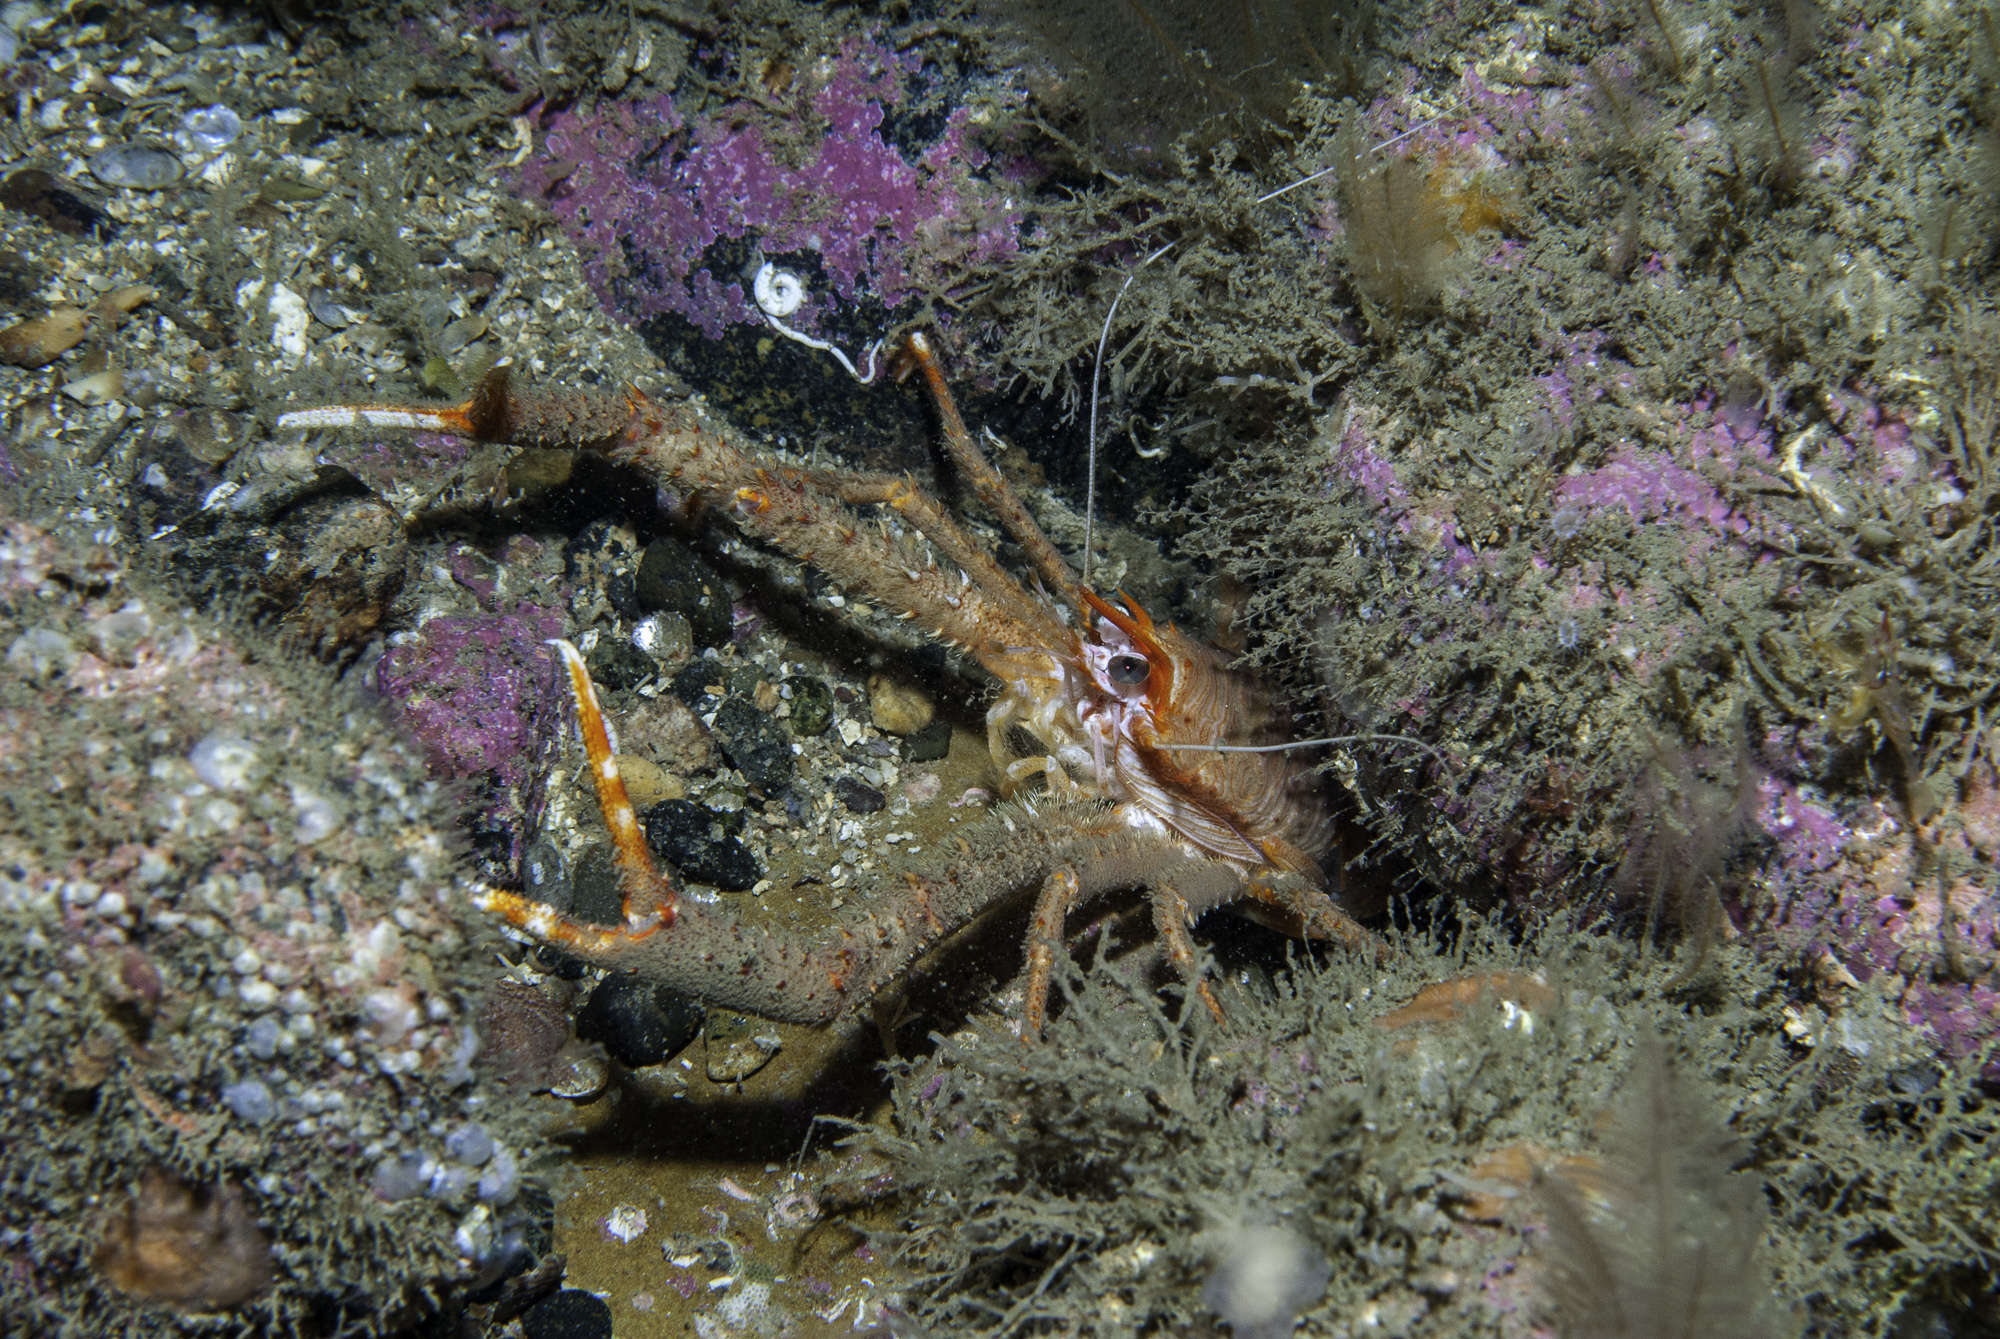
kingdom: Animalia
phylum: Arthropoda
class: Malacostraca
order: Decapoda
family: Munididae
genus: Munida
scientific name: Munida rugosa
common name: Rugose squat lobster
